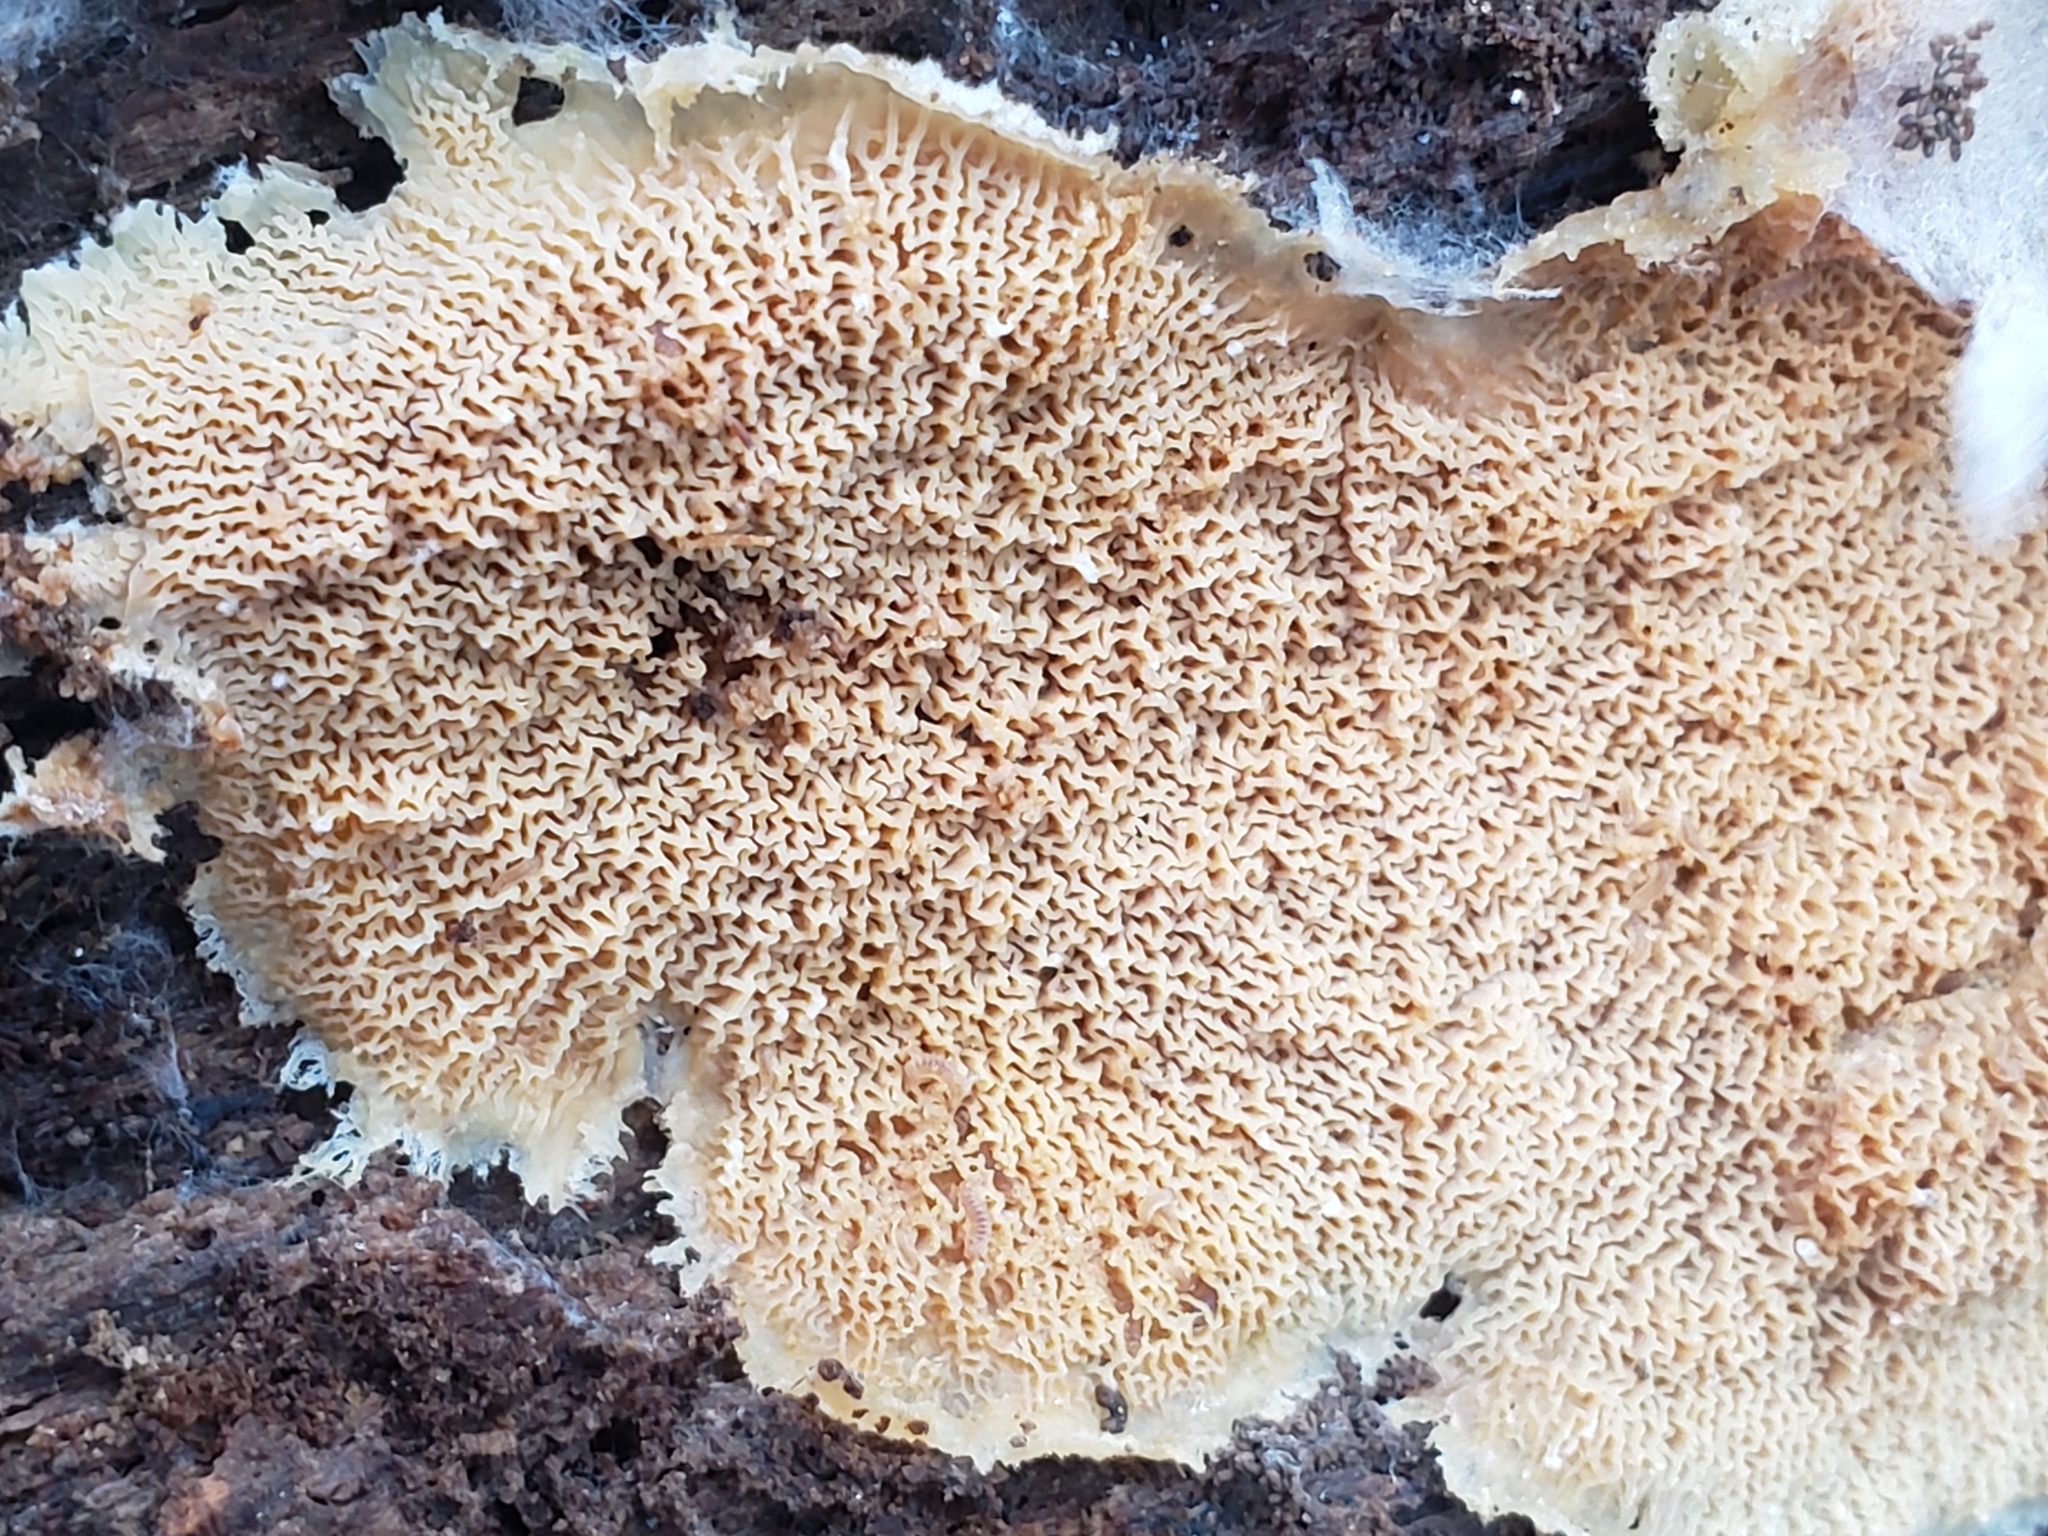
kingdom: Fungi
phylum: Basidiomycota
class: Agaricomycetes
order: Polyporales
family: Meruliaceae
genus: Phlebia
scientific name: Phlebia tremellosa
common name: Jelly rot
